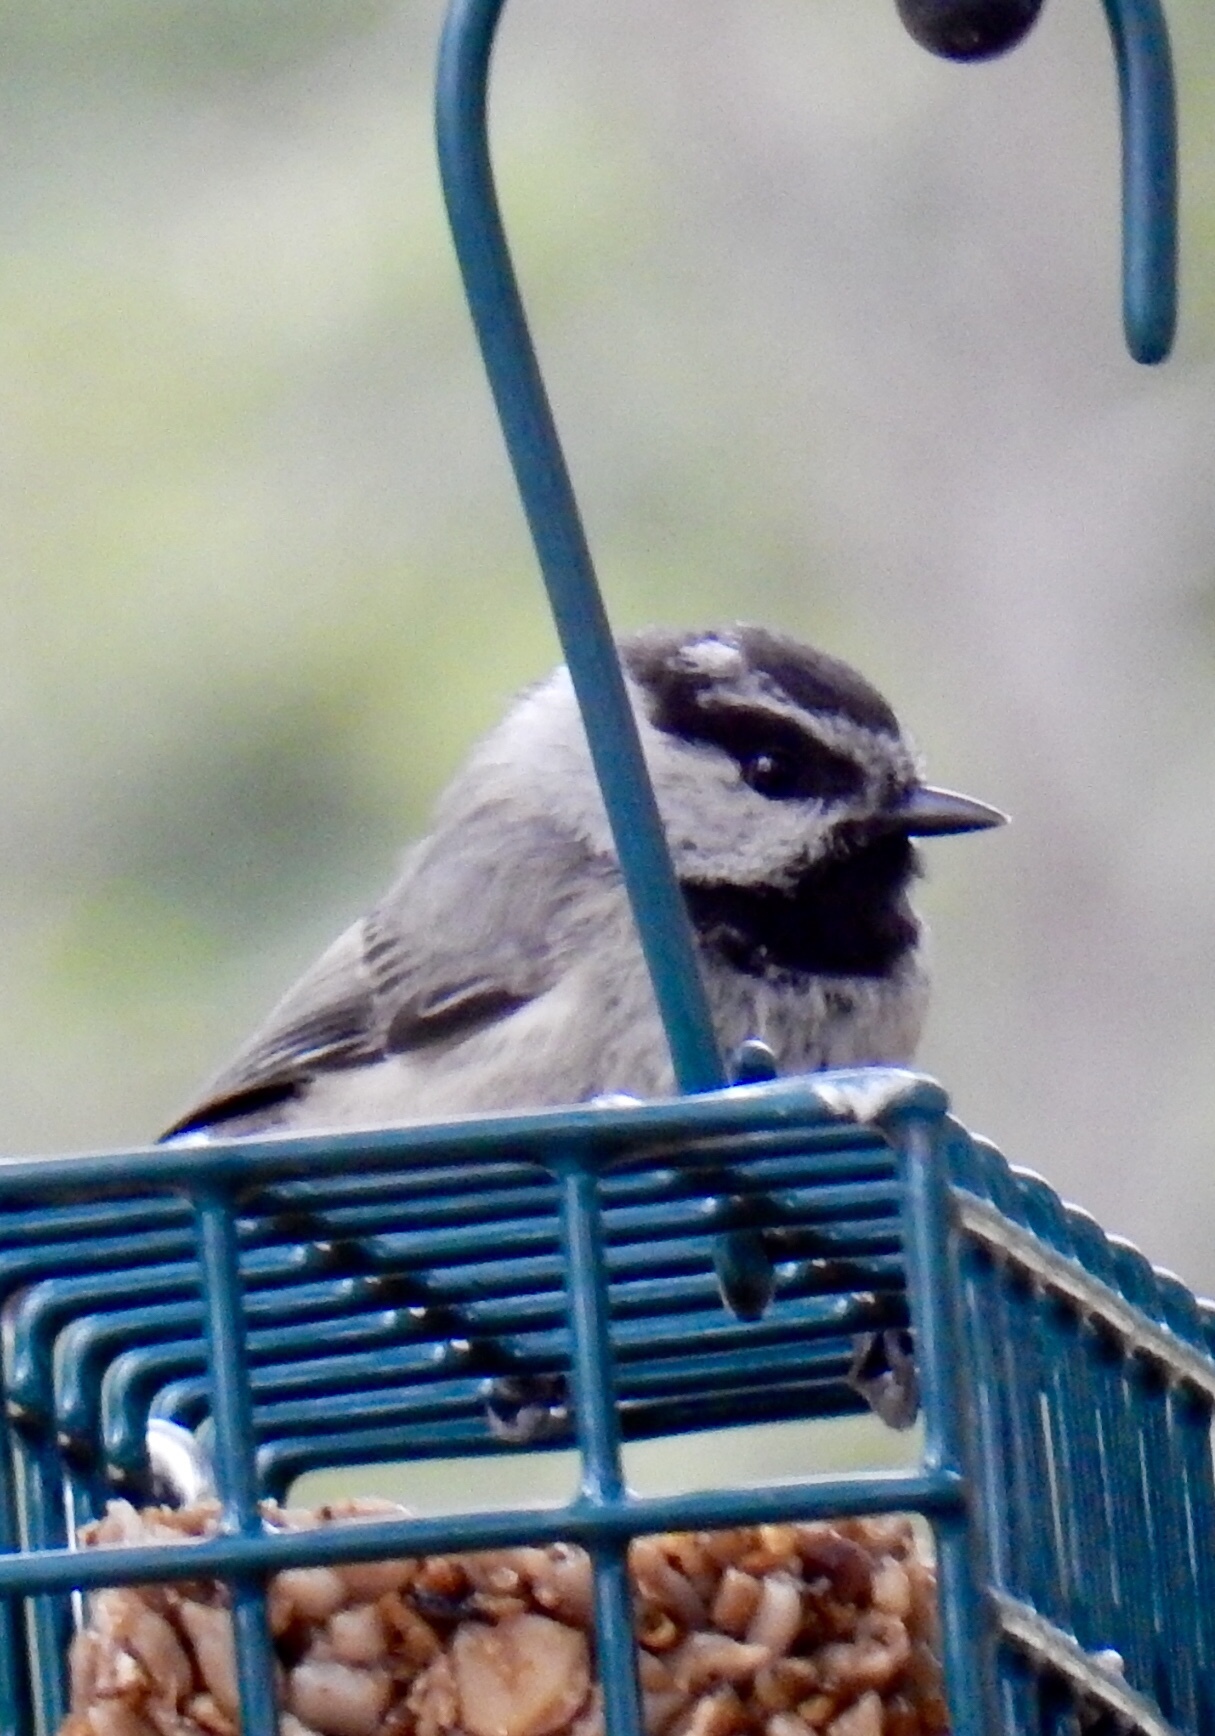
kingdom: Animalia
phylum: Chordata
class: Aves
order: Passeriformes
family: Paridae
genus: Poecile
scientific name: Poecile gambeli
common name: Mountain chickadee
